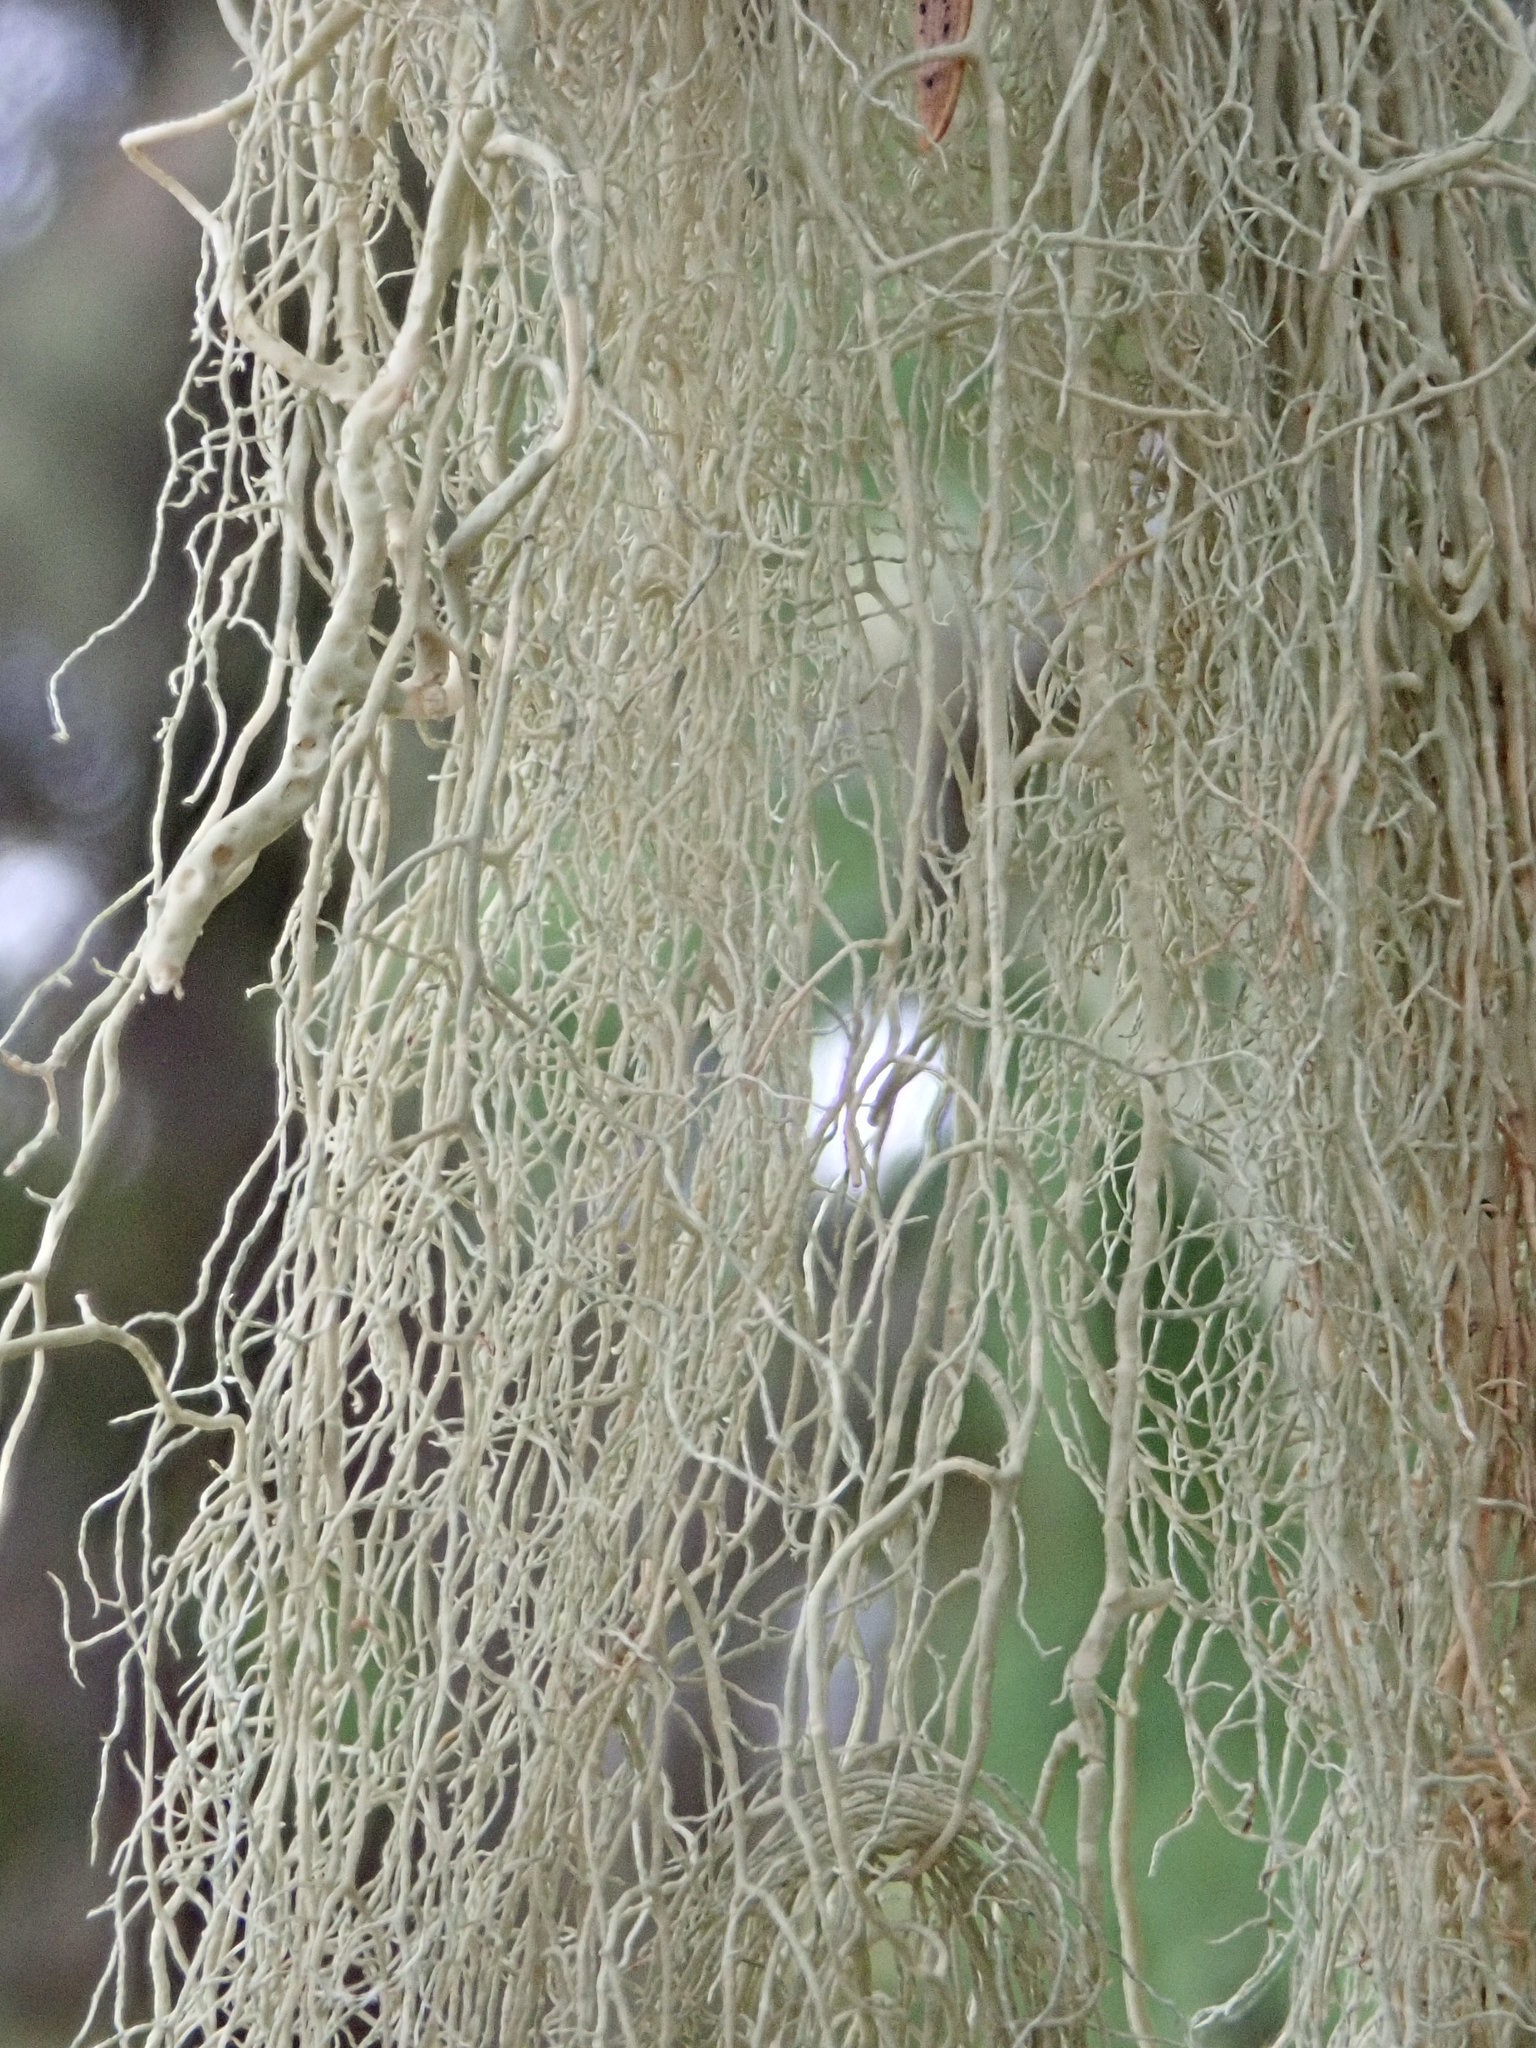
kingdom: Fungi
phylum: Ascomycota
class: Lecanoromycetes
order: Lecanorales
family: Parmeliaceae
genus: Usnea
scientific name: Usnea cavernosa
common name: Pitted beard lichen
